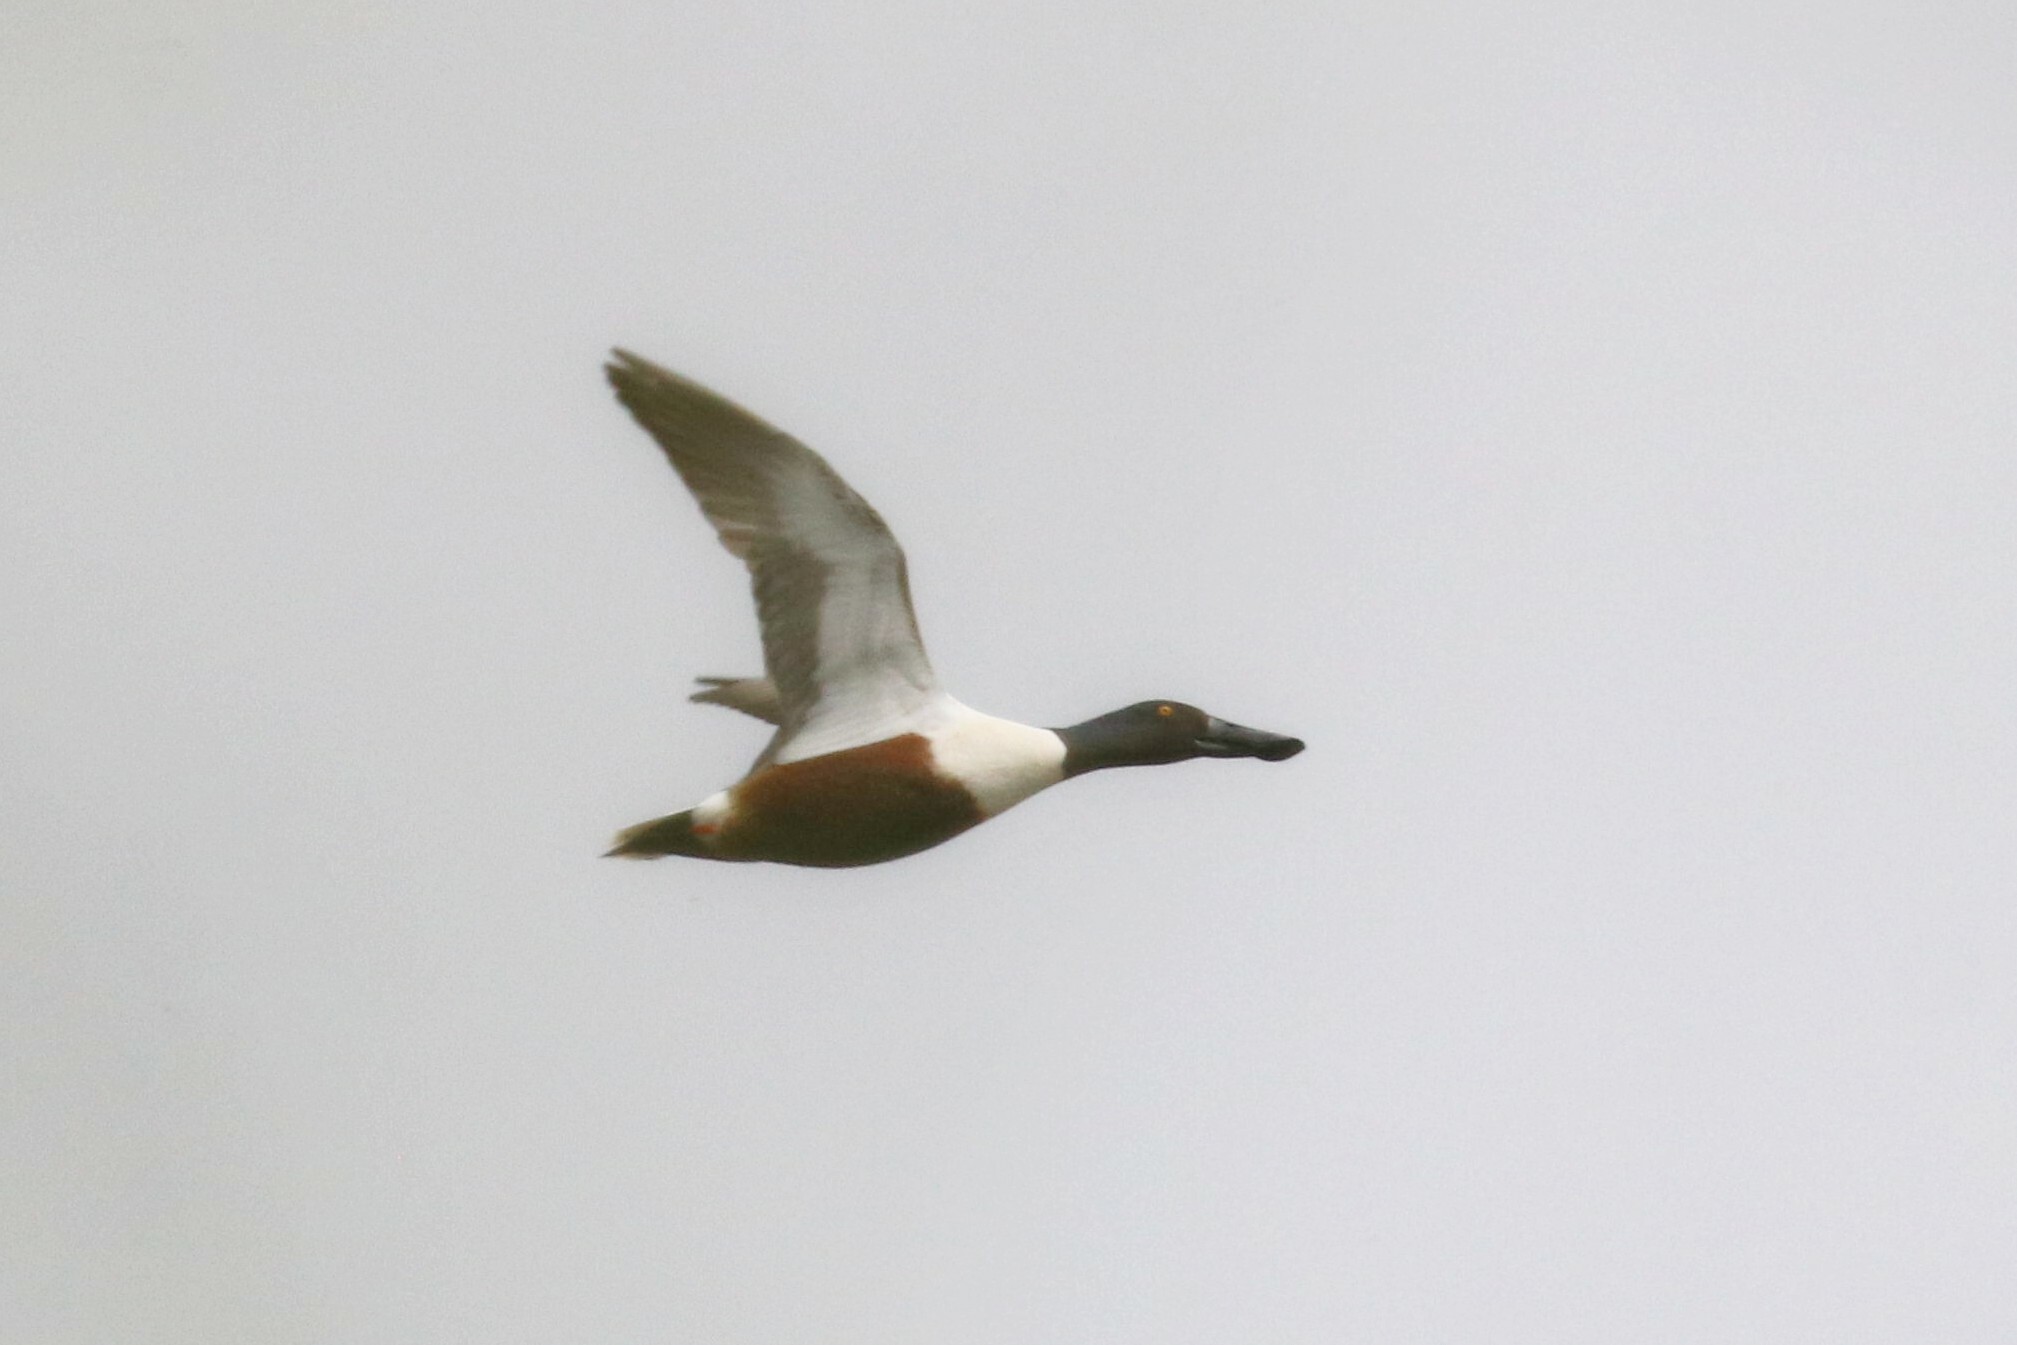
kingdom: Animalia
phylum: Chordata
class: Aves
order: Anseriformes
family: Anatidae
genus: Spatula
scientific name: Spatula clypeata
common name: Northern shoveler
